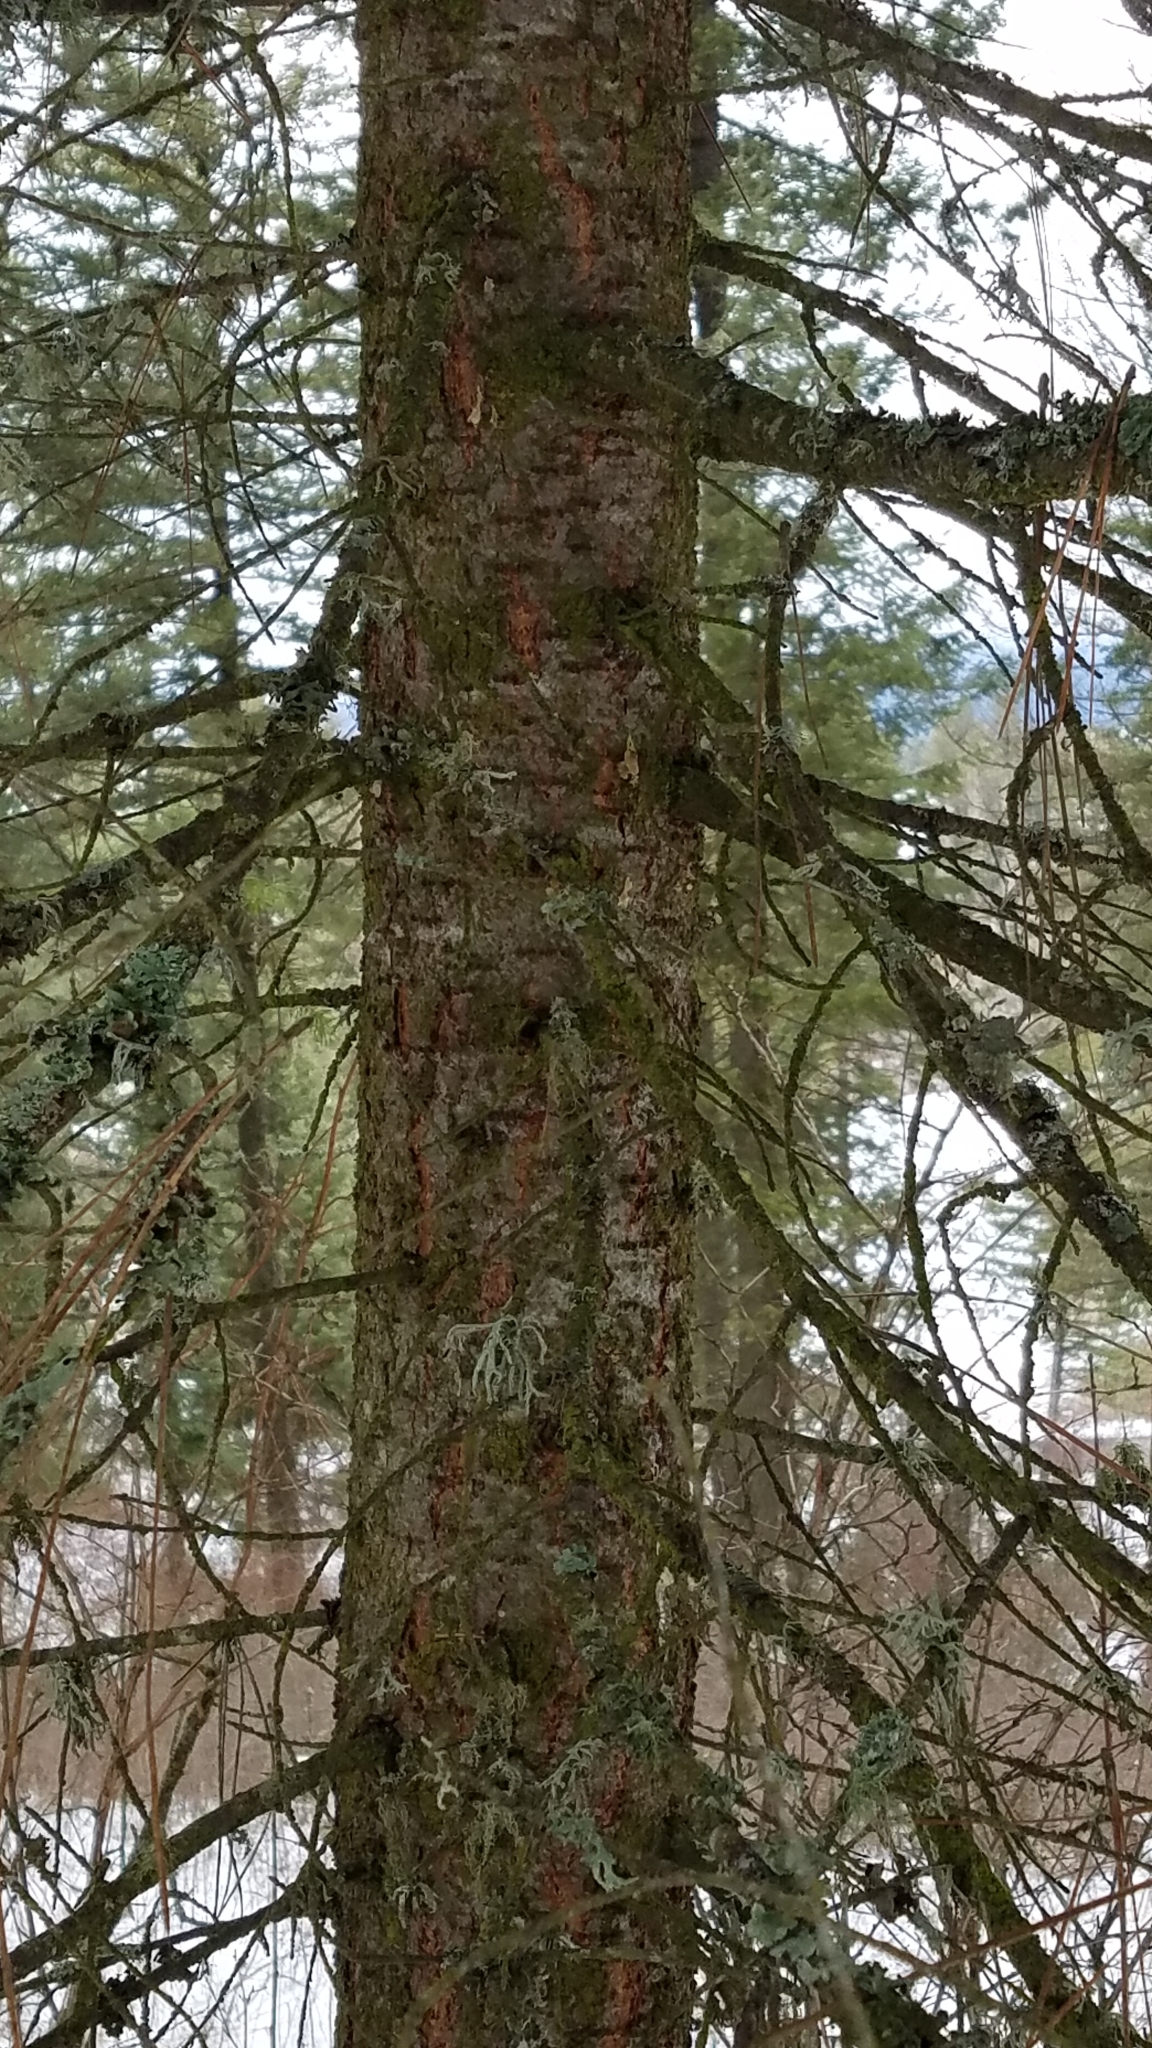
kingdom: Plantae
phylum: Tracheophyta
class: Pinopsida
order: Pinales
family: Pinaceae
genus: Pseudotsuga
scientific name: Pseudotsuga menziesii
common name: Douglas fir
